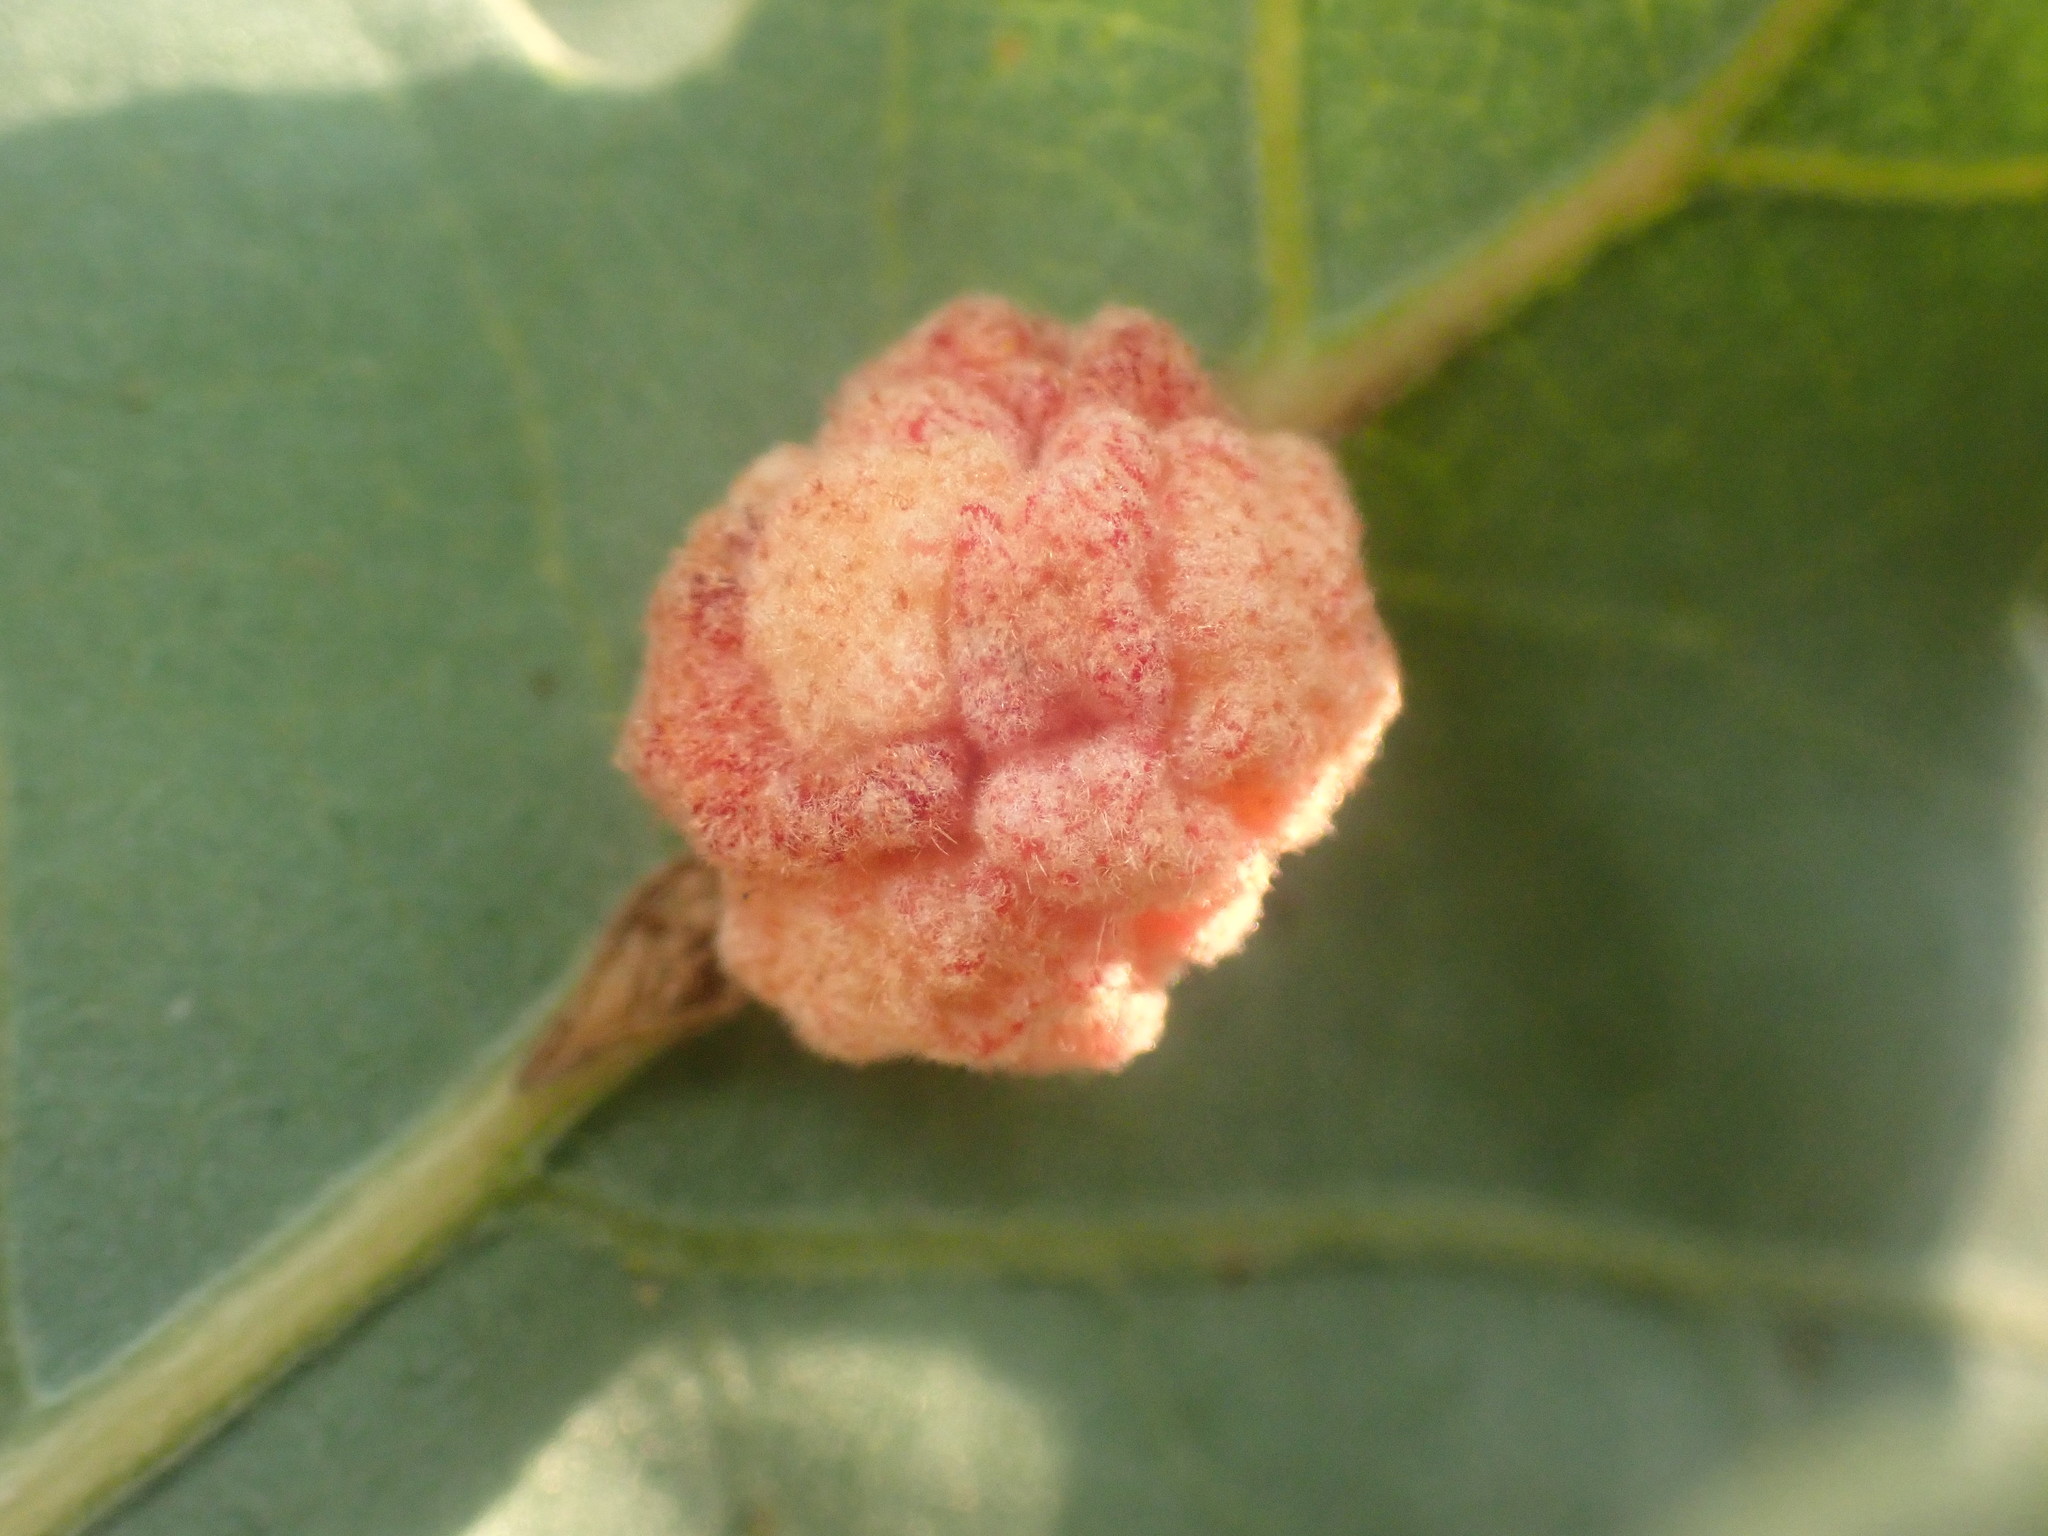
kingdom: Animalia
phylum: Arthropoda
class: Insecta
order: Hymenoptera
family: Cynipidae
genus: Andricus
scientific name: Andricus
